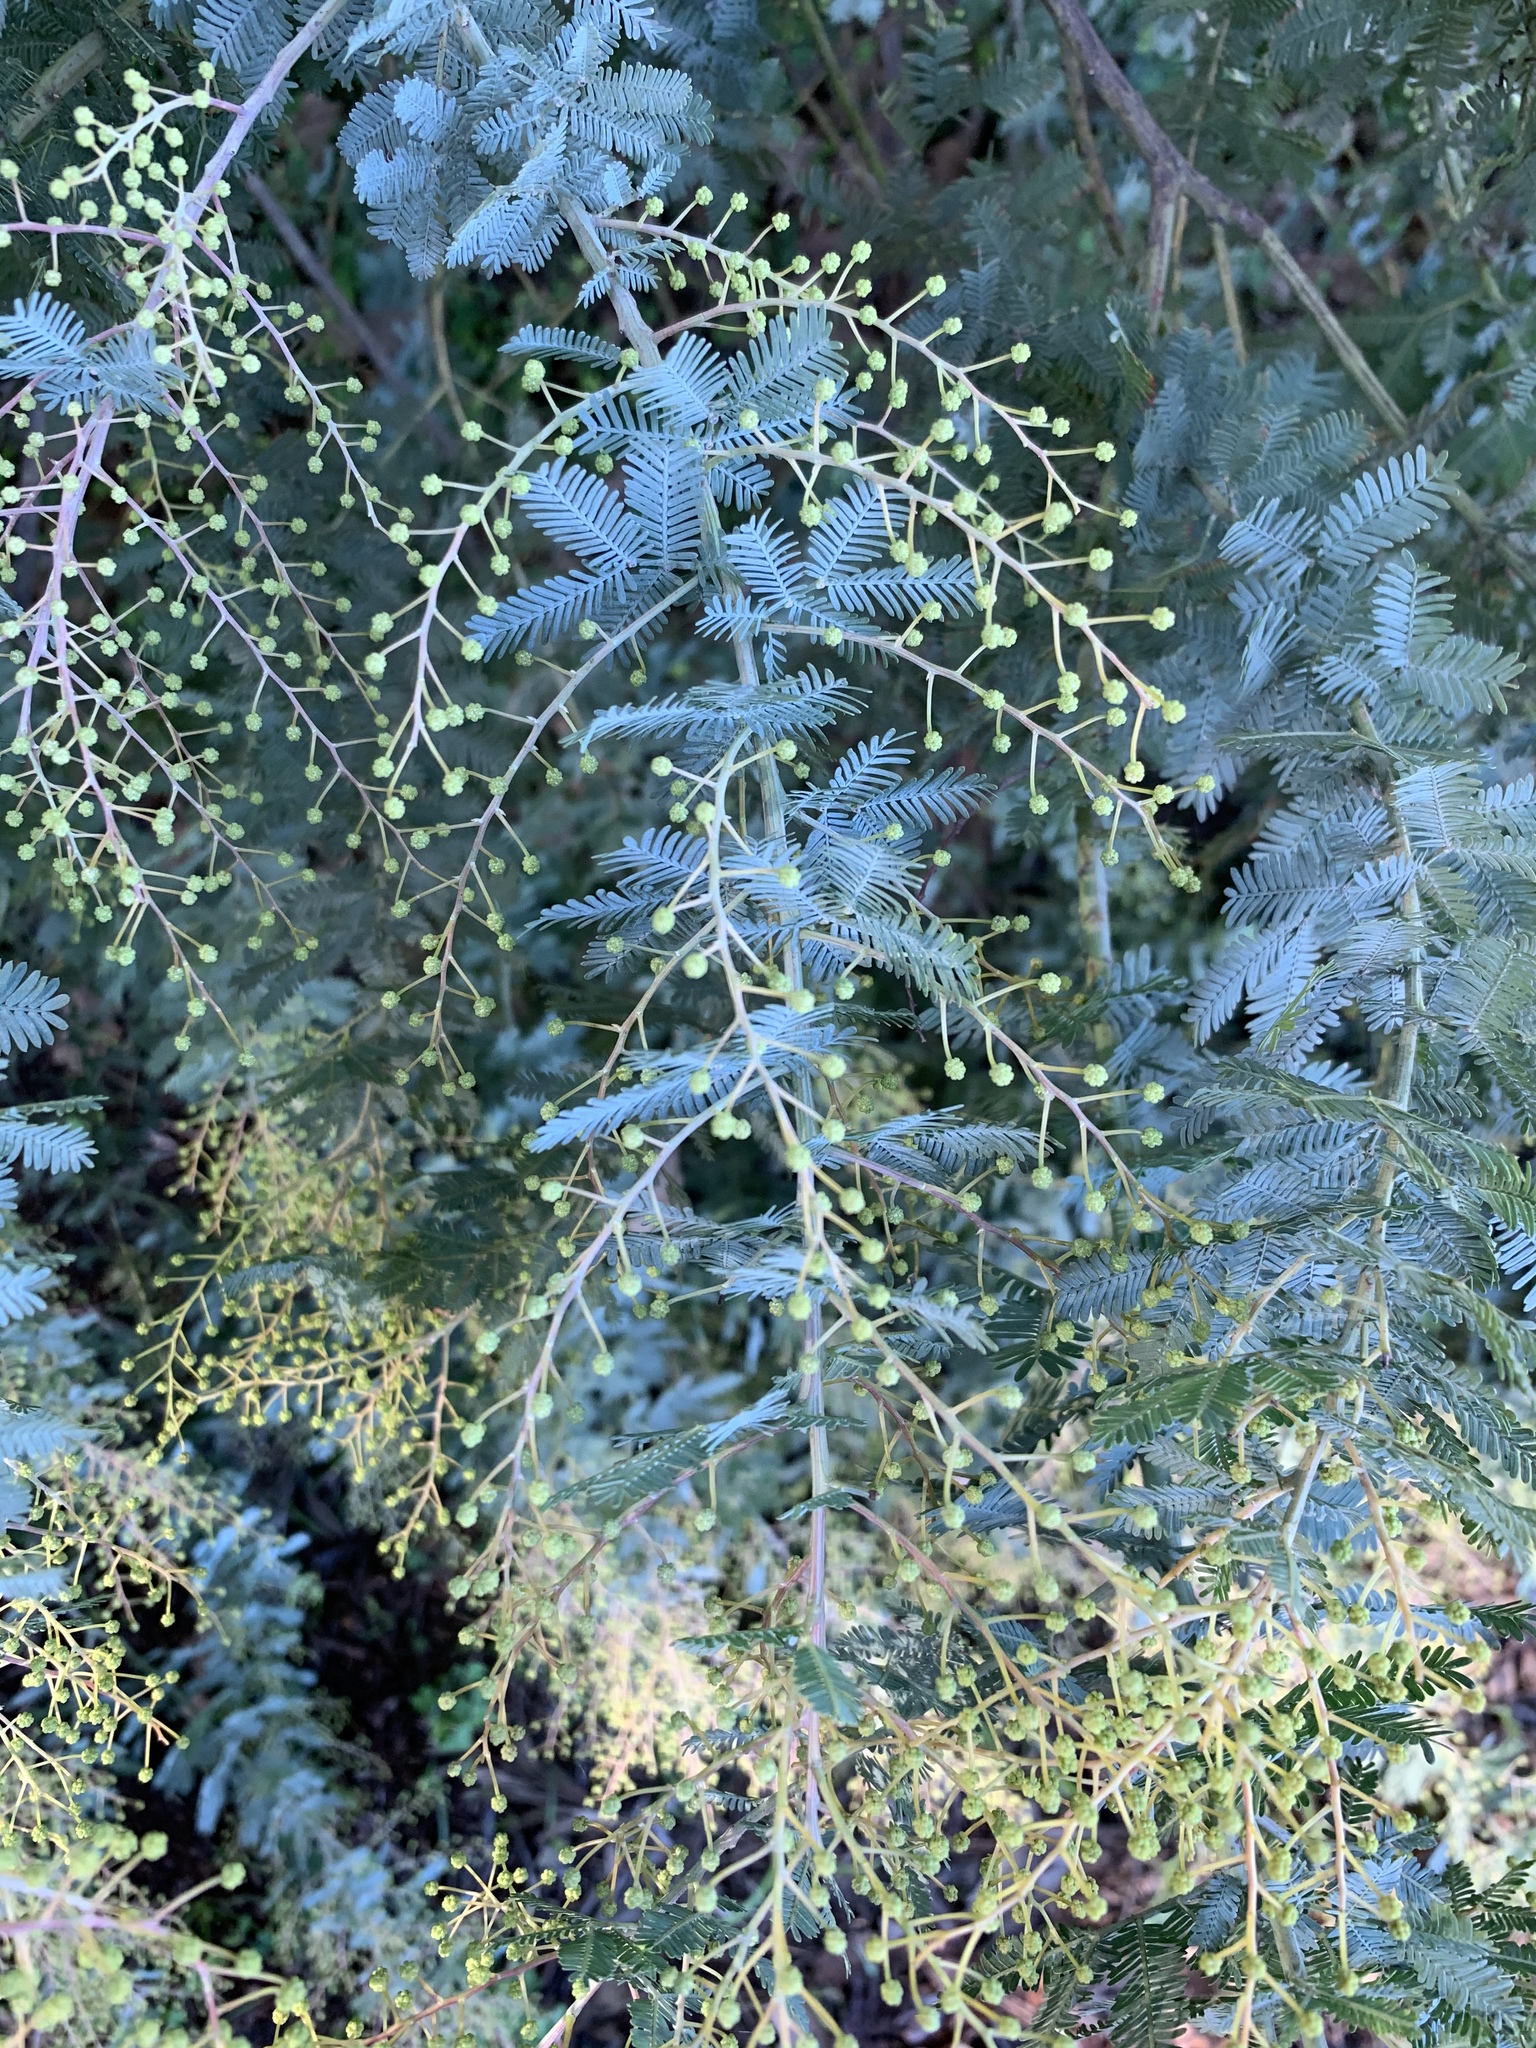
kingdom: Plantae
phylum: Tracheophyta
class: Magnoliopsida
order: Fabales
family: Fabaceae
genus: Acacia
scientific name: Acacia baileyana
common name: Cootamundra wattle
